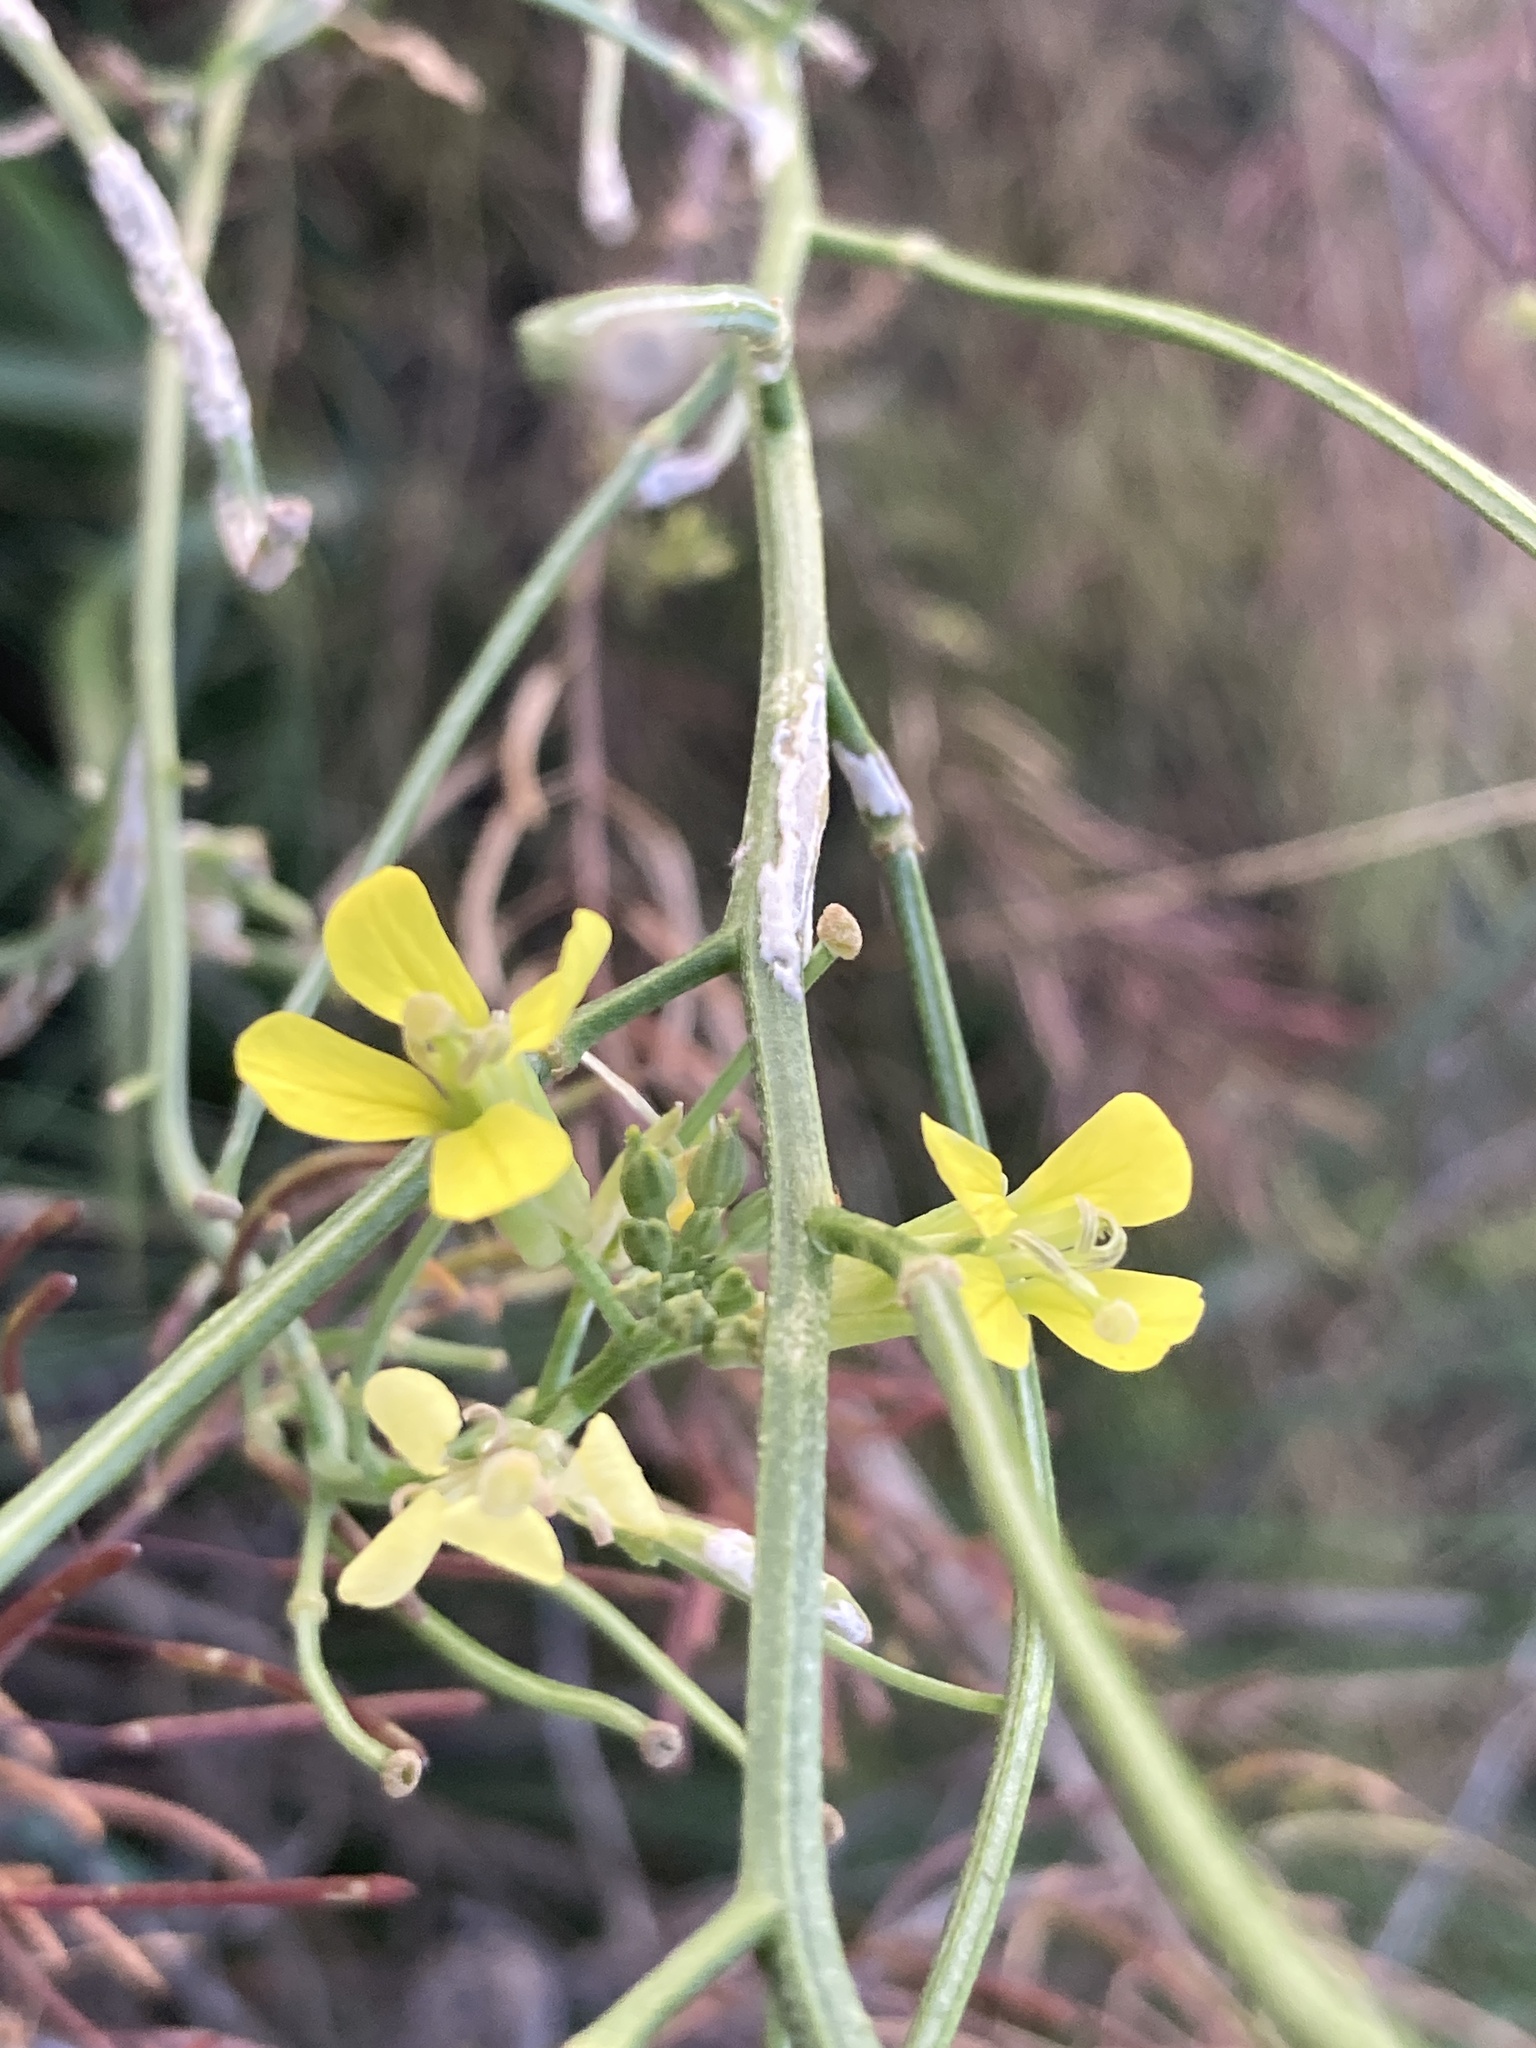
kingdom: Plantae
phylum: Tracheophyta
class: Magnoliopsida
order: Brassicales
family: Brassicaceae
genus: Sisymbrium
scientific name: Sisymbrium altissimum
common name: Tall rocket
